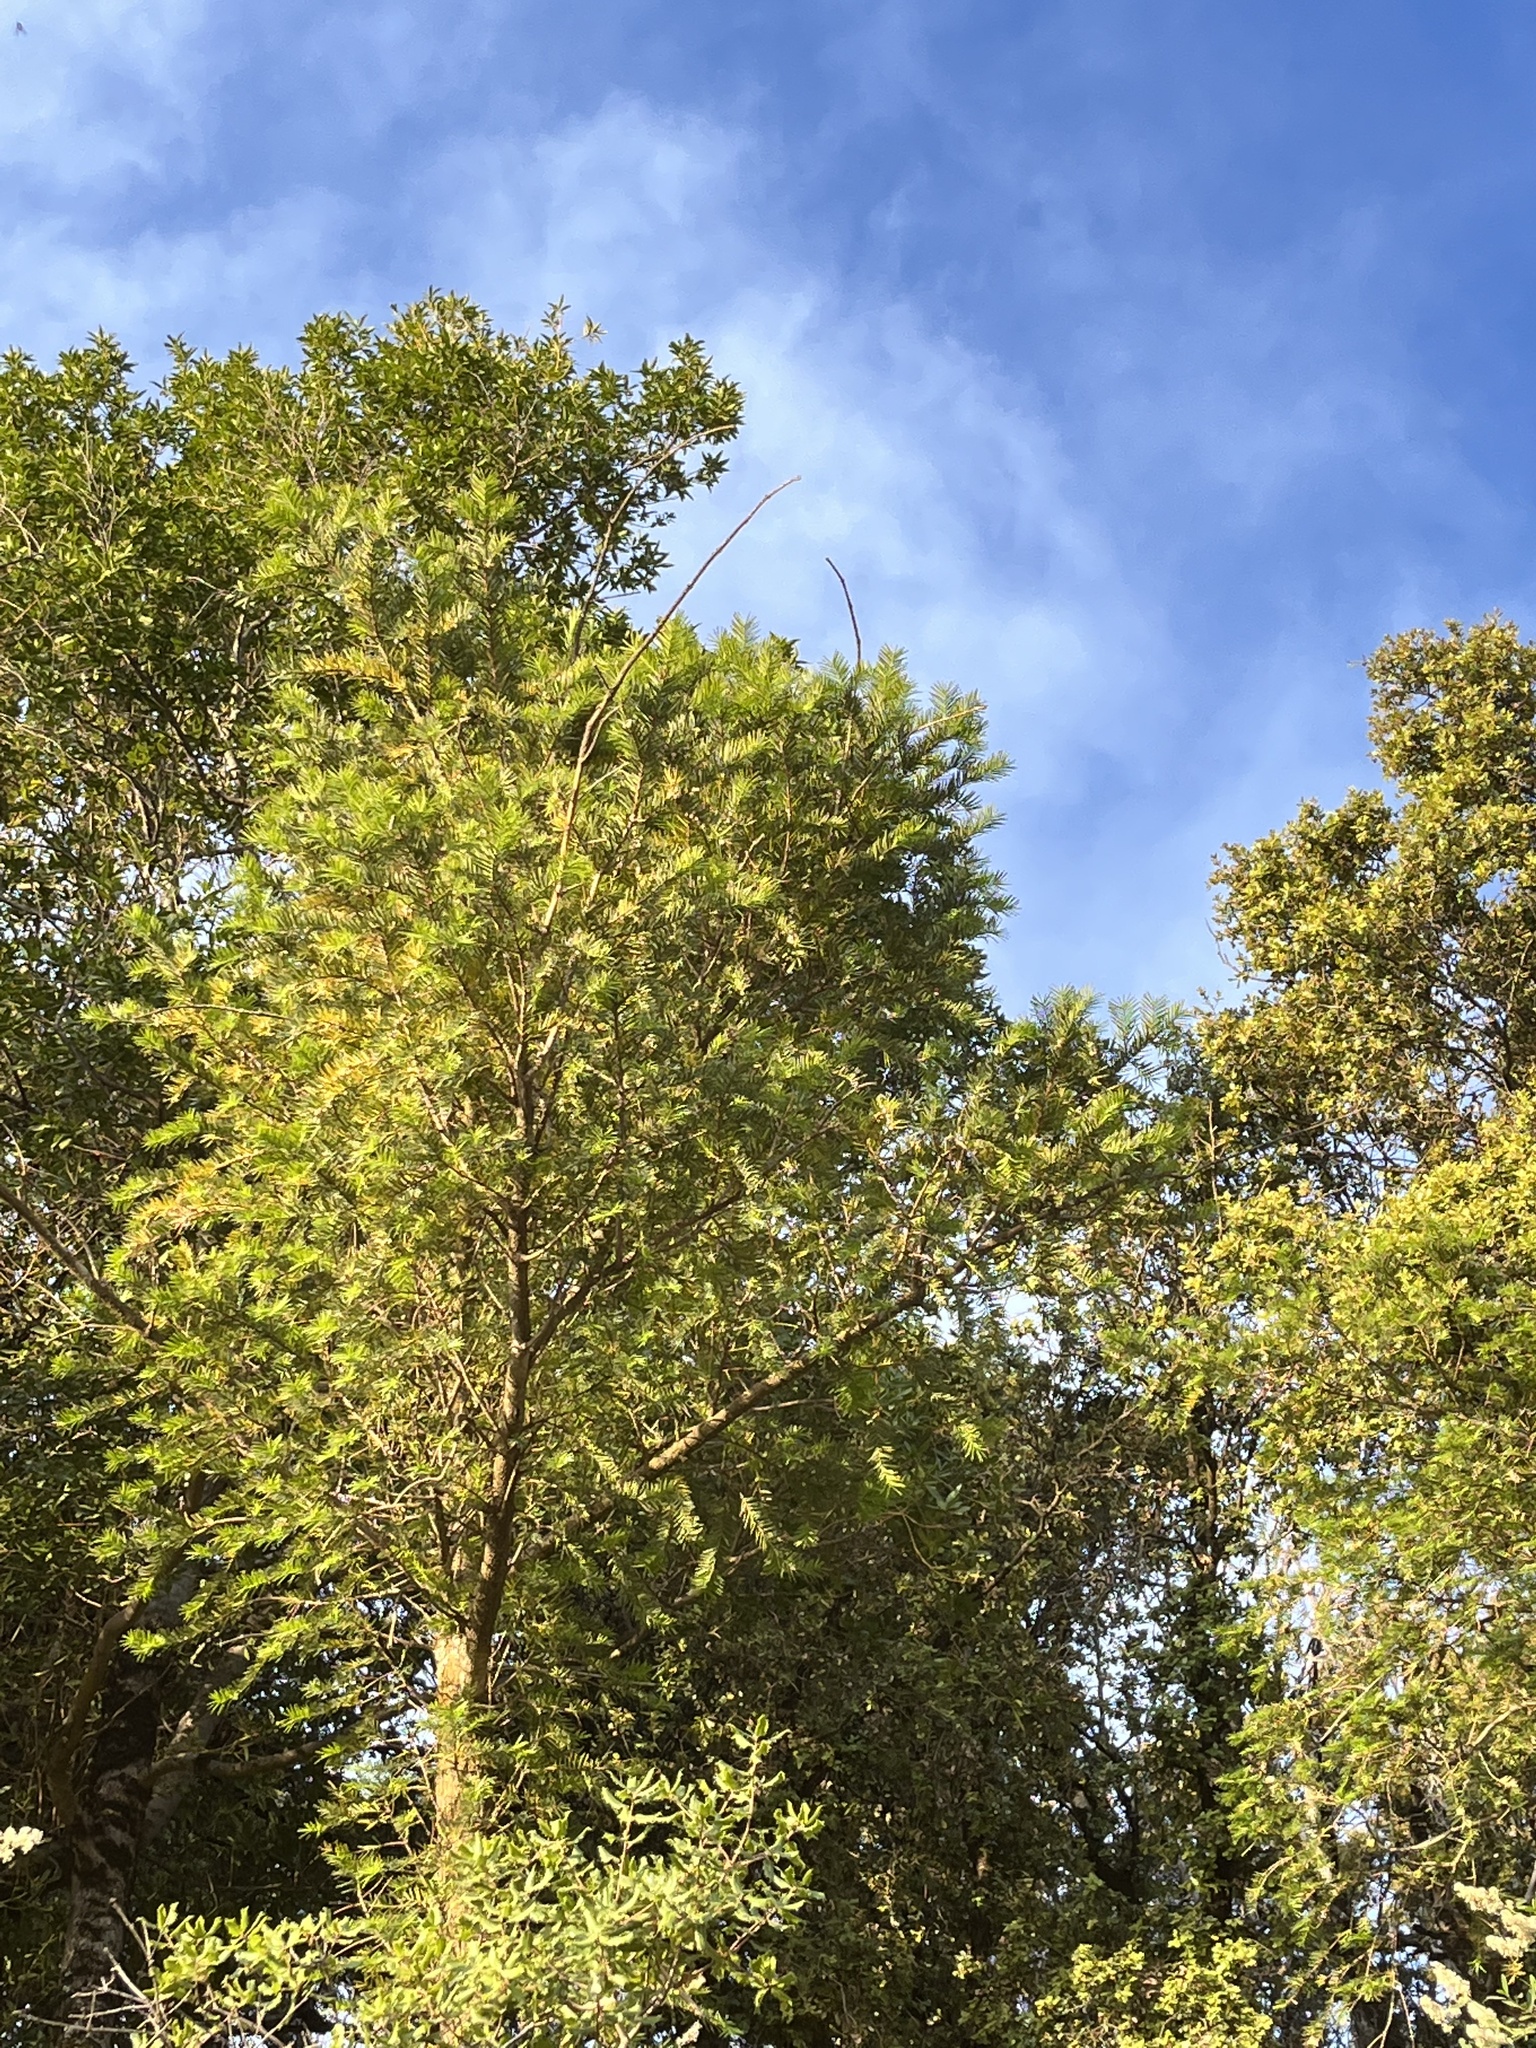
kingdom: Plantae
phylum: Tracheophyta
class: Pinopsida
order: Pinales
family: Taxaceae
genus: Torreya
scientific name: Torreya californica
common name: California torreya
